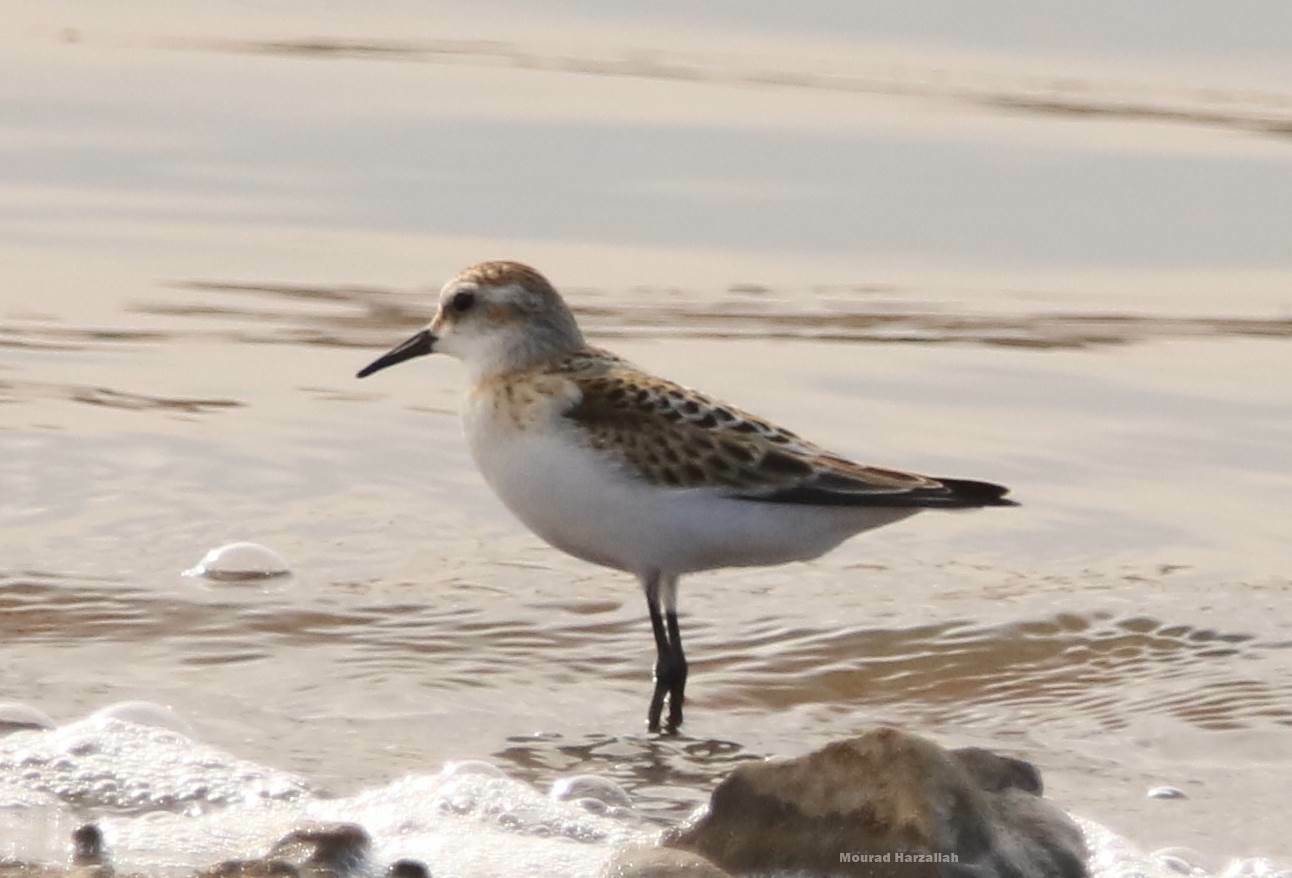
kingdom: Animalia
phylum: Chordata
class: Aves
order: Charadriiformes
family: Scolopacidae
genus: Calidris
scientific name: Calidris minuta
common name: Little stint
